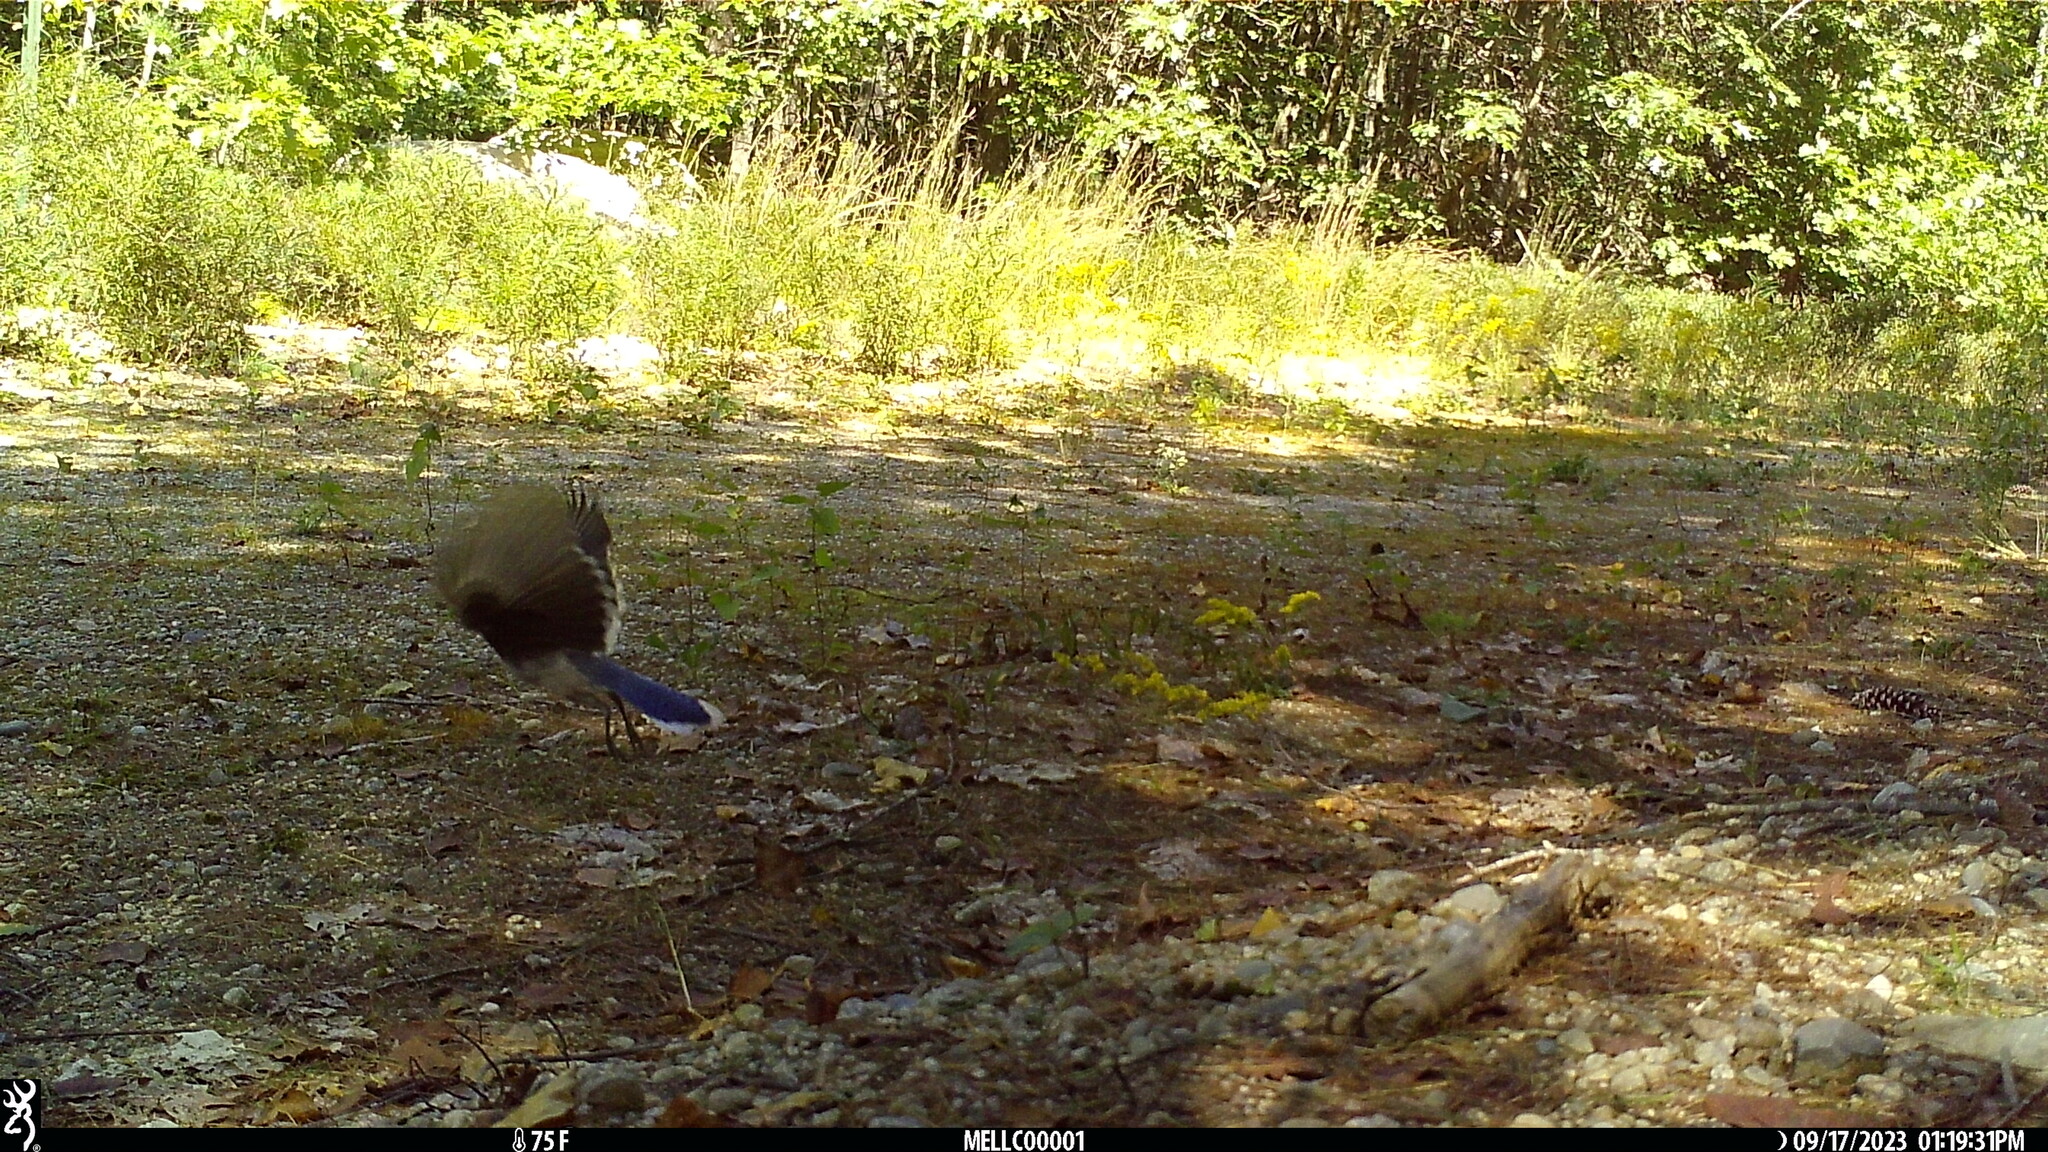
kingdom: Animalia
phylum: Chordata
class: Aves
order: Passeriformes
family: Corvidae
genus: Cyanocitta
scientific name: Cyanocitta cristata
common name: Blue jay
